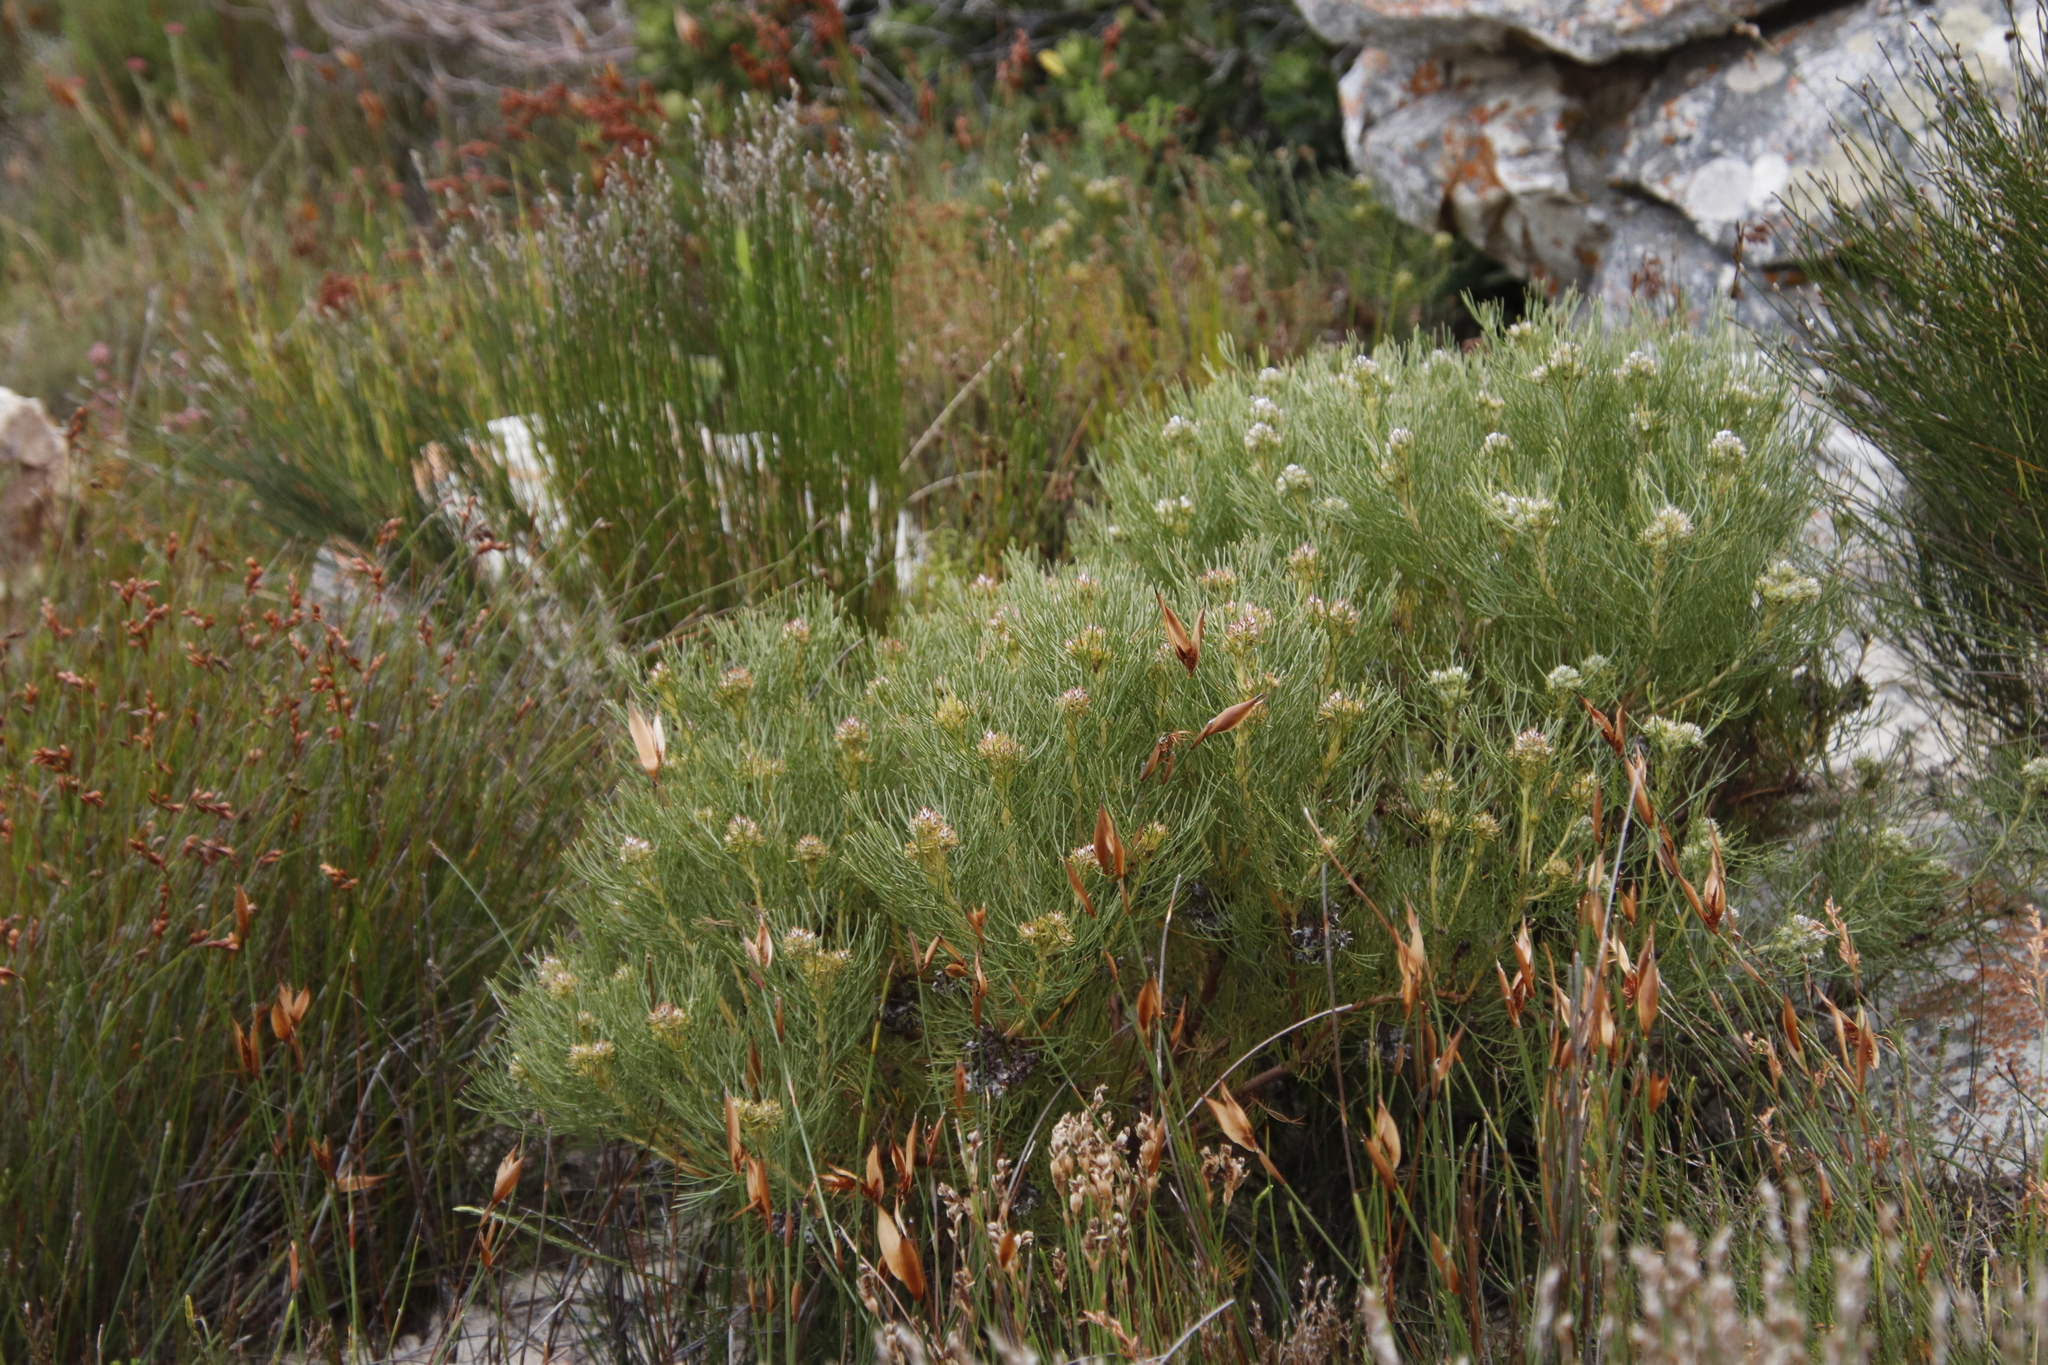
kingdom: Plantae
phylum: Tracheophyta
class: Magnoliopsida
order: Proteales
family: Proteaceae
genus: Serruria
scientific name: Serruria ascendens
